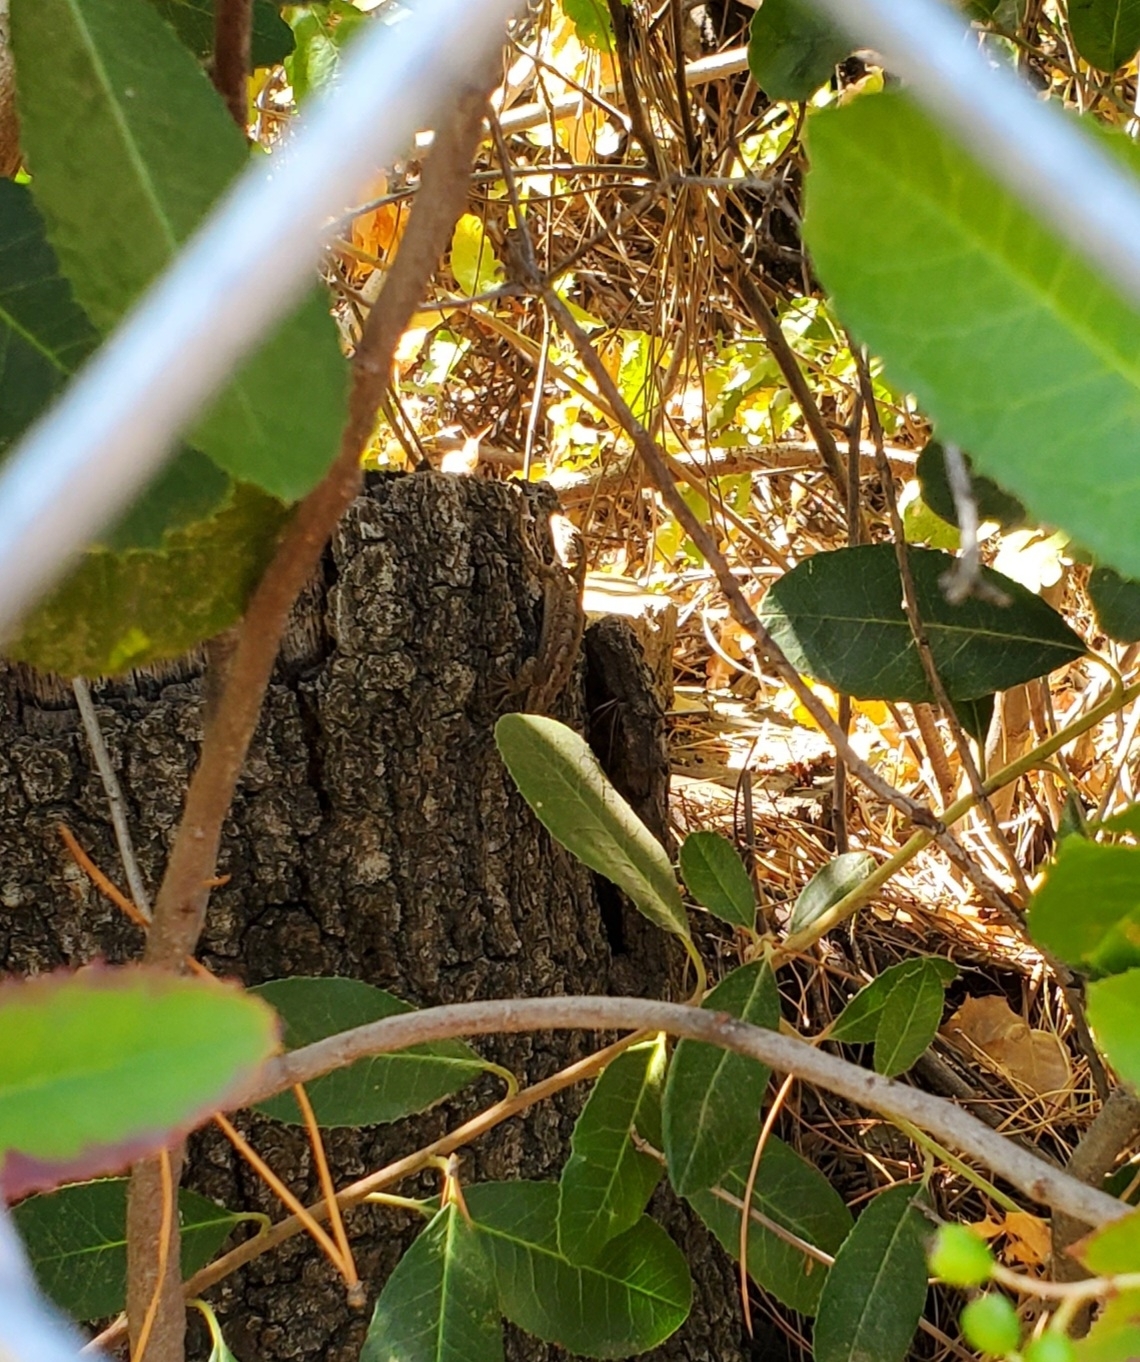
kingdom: Animalia
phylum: Chordata
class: Squamata
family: Phrynosomatidae
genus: Sceloporus
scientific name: Sceloporus occidentalis
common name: Western fence lizard
